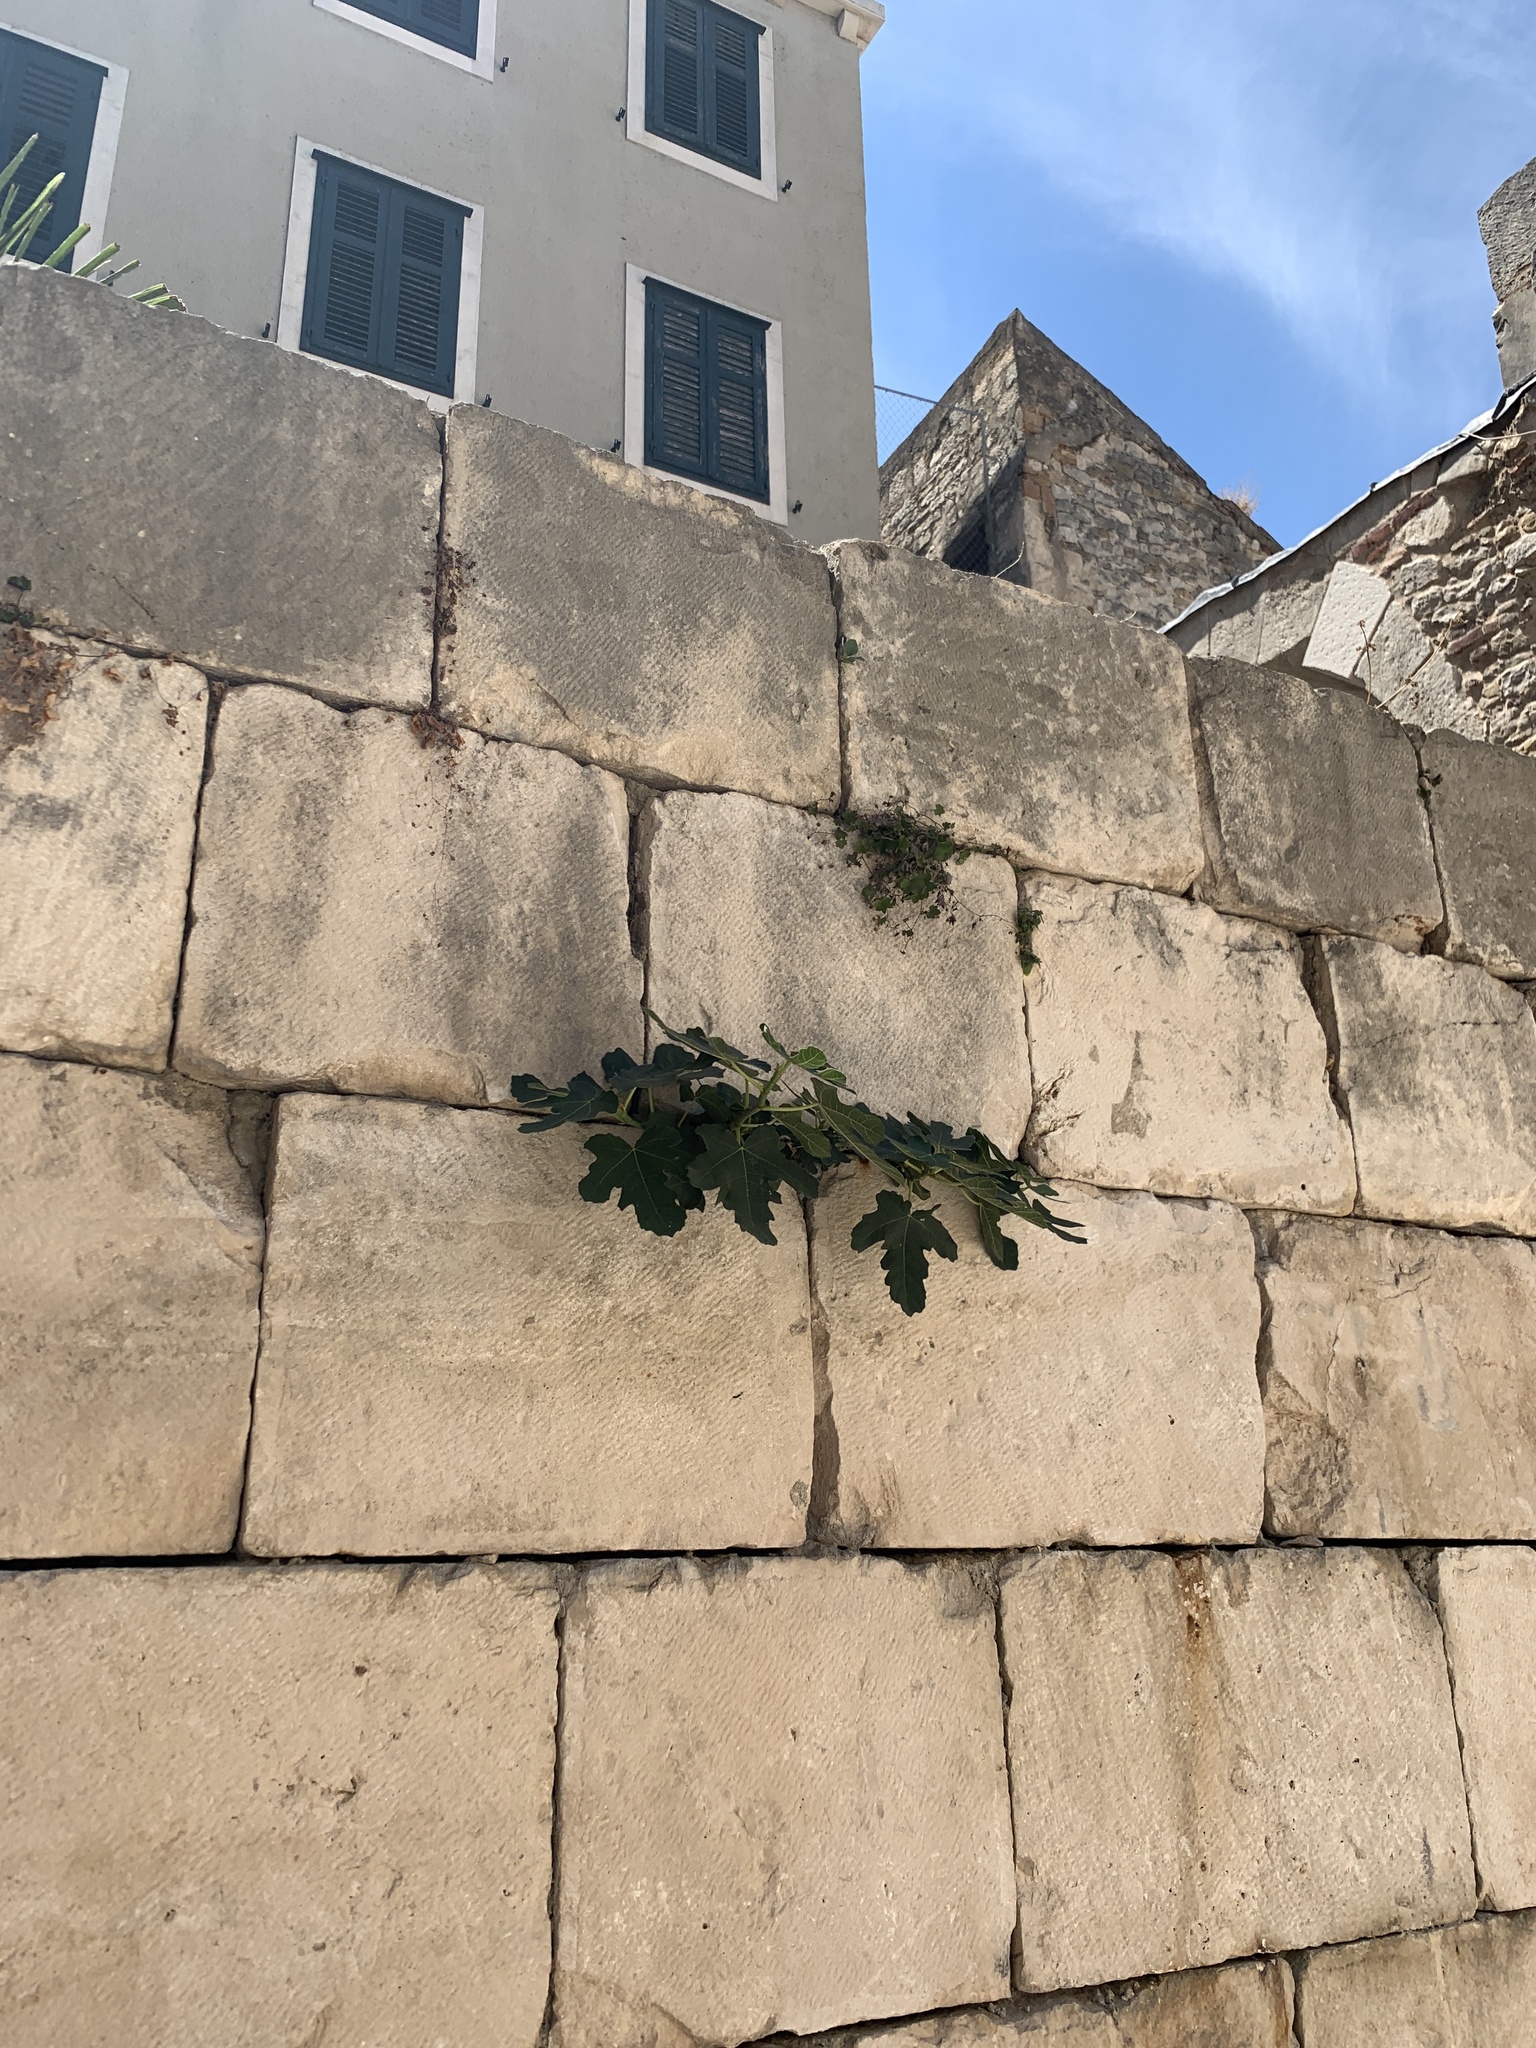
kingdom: Plantae
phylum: Tracheophyta
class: Magnoliopsida
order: Rosales
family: Moraceae
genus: Ficus
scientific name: Ficus carica
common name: Fig
